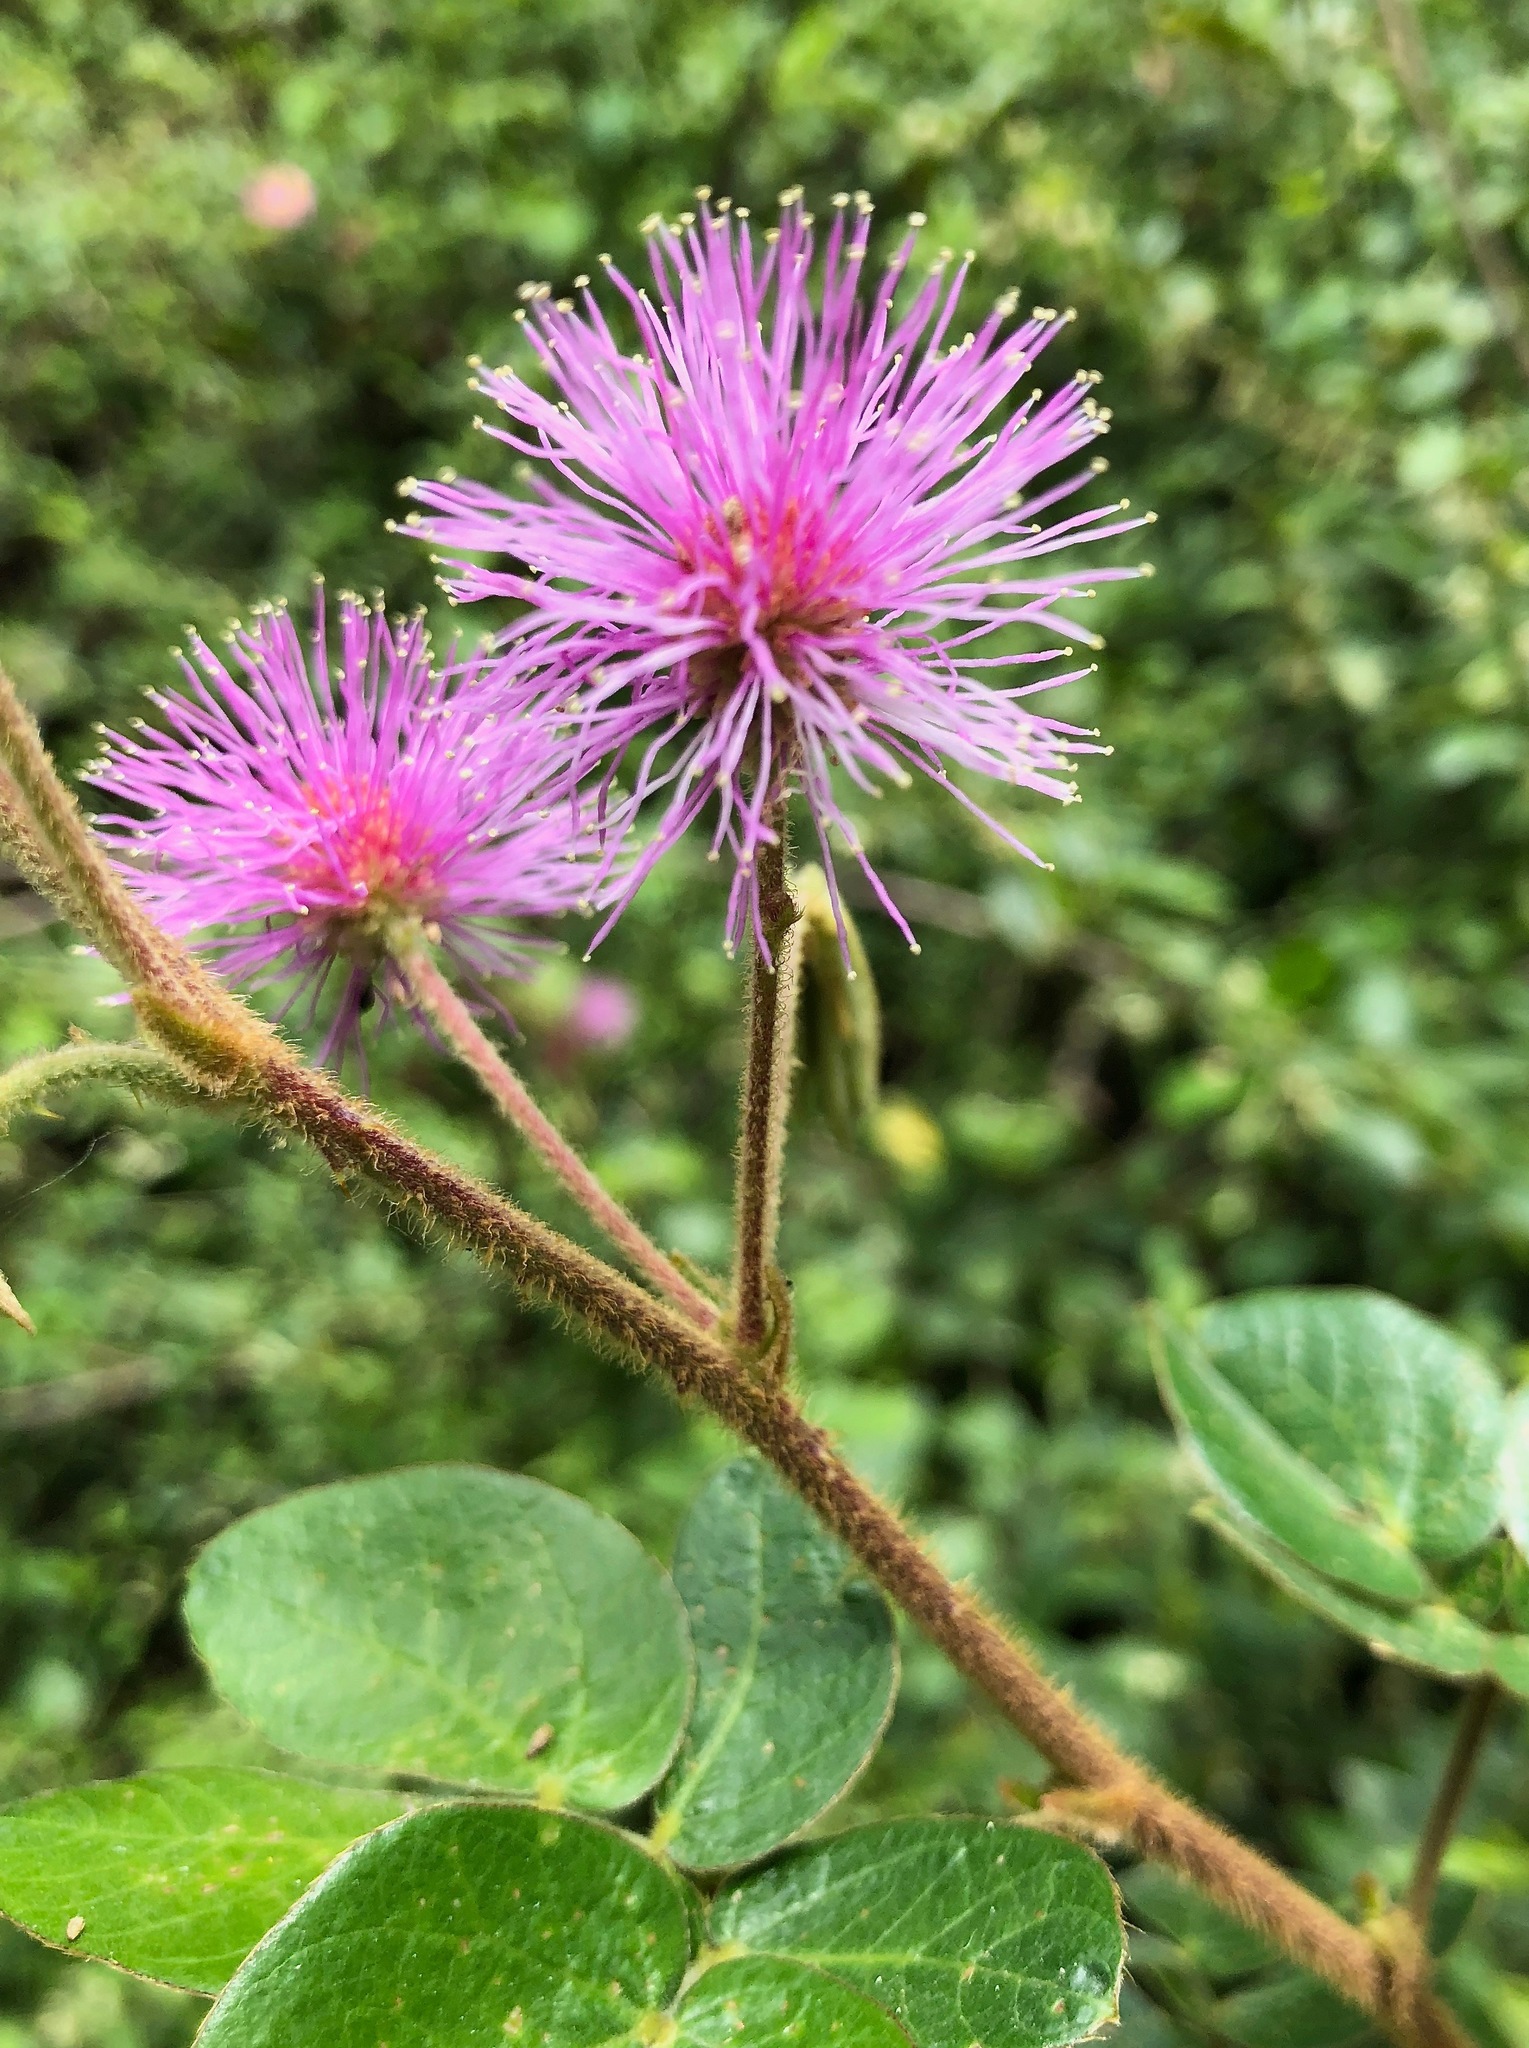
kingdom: Plantae
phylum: Tracheophyta
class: Magnoliopsida
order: Fabales
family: Fabaceae
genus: Mimosa
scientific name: Mimosa albida
